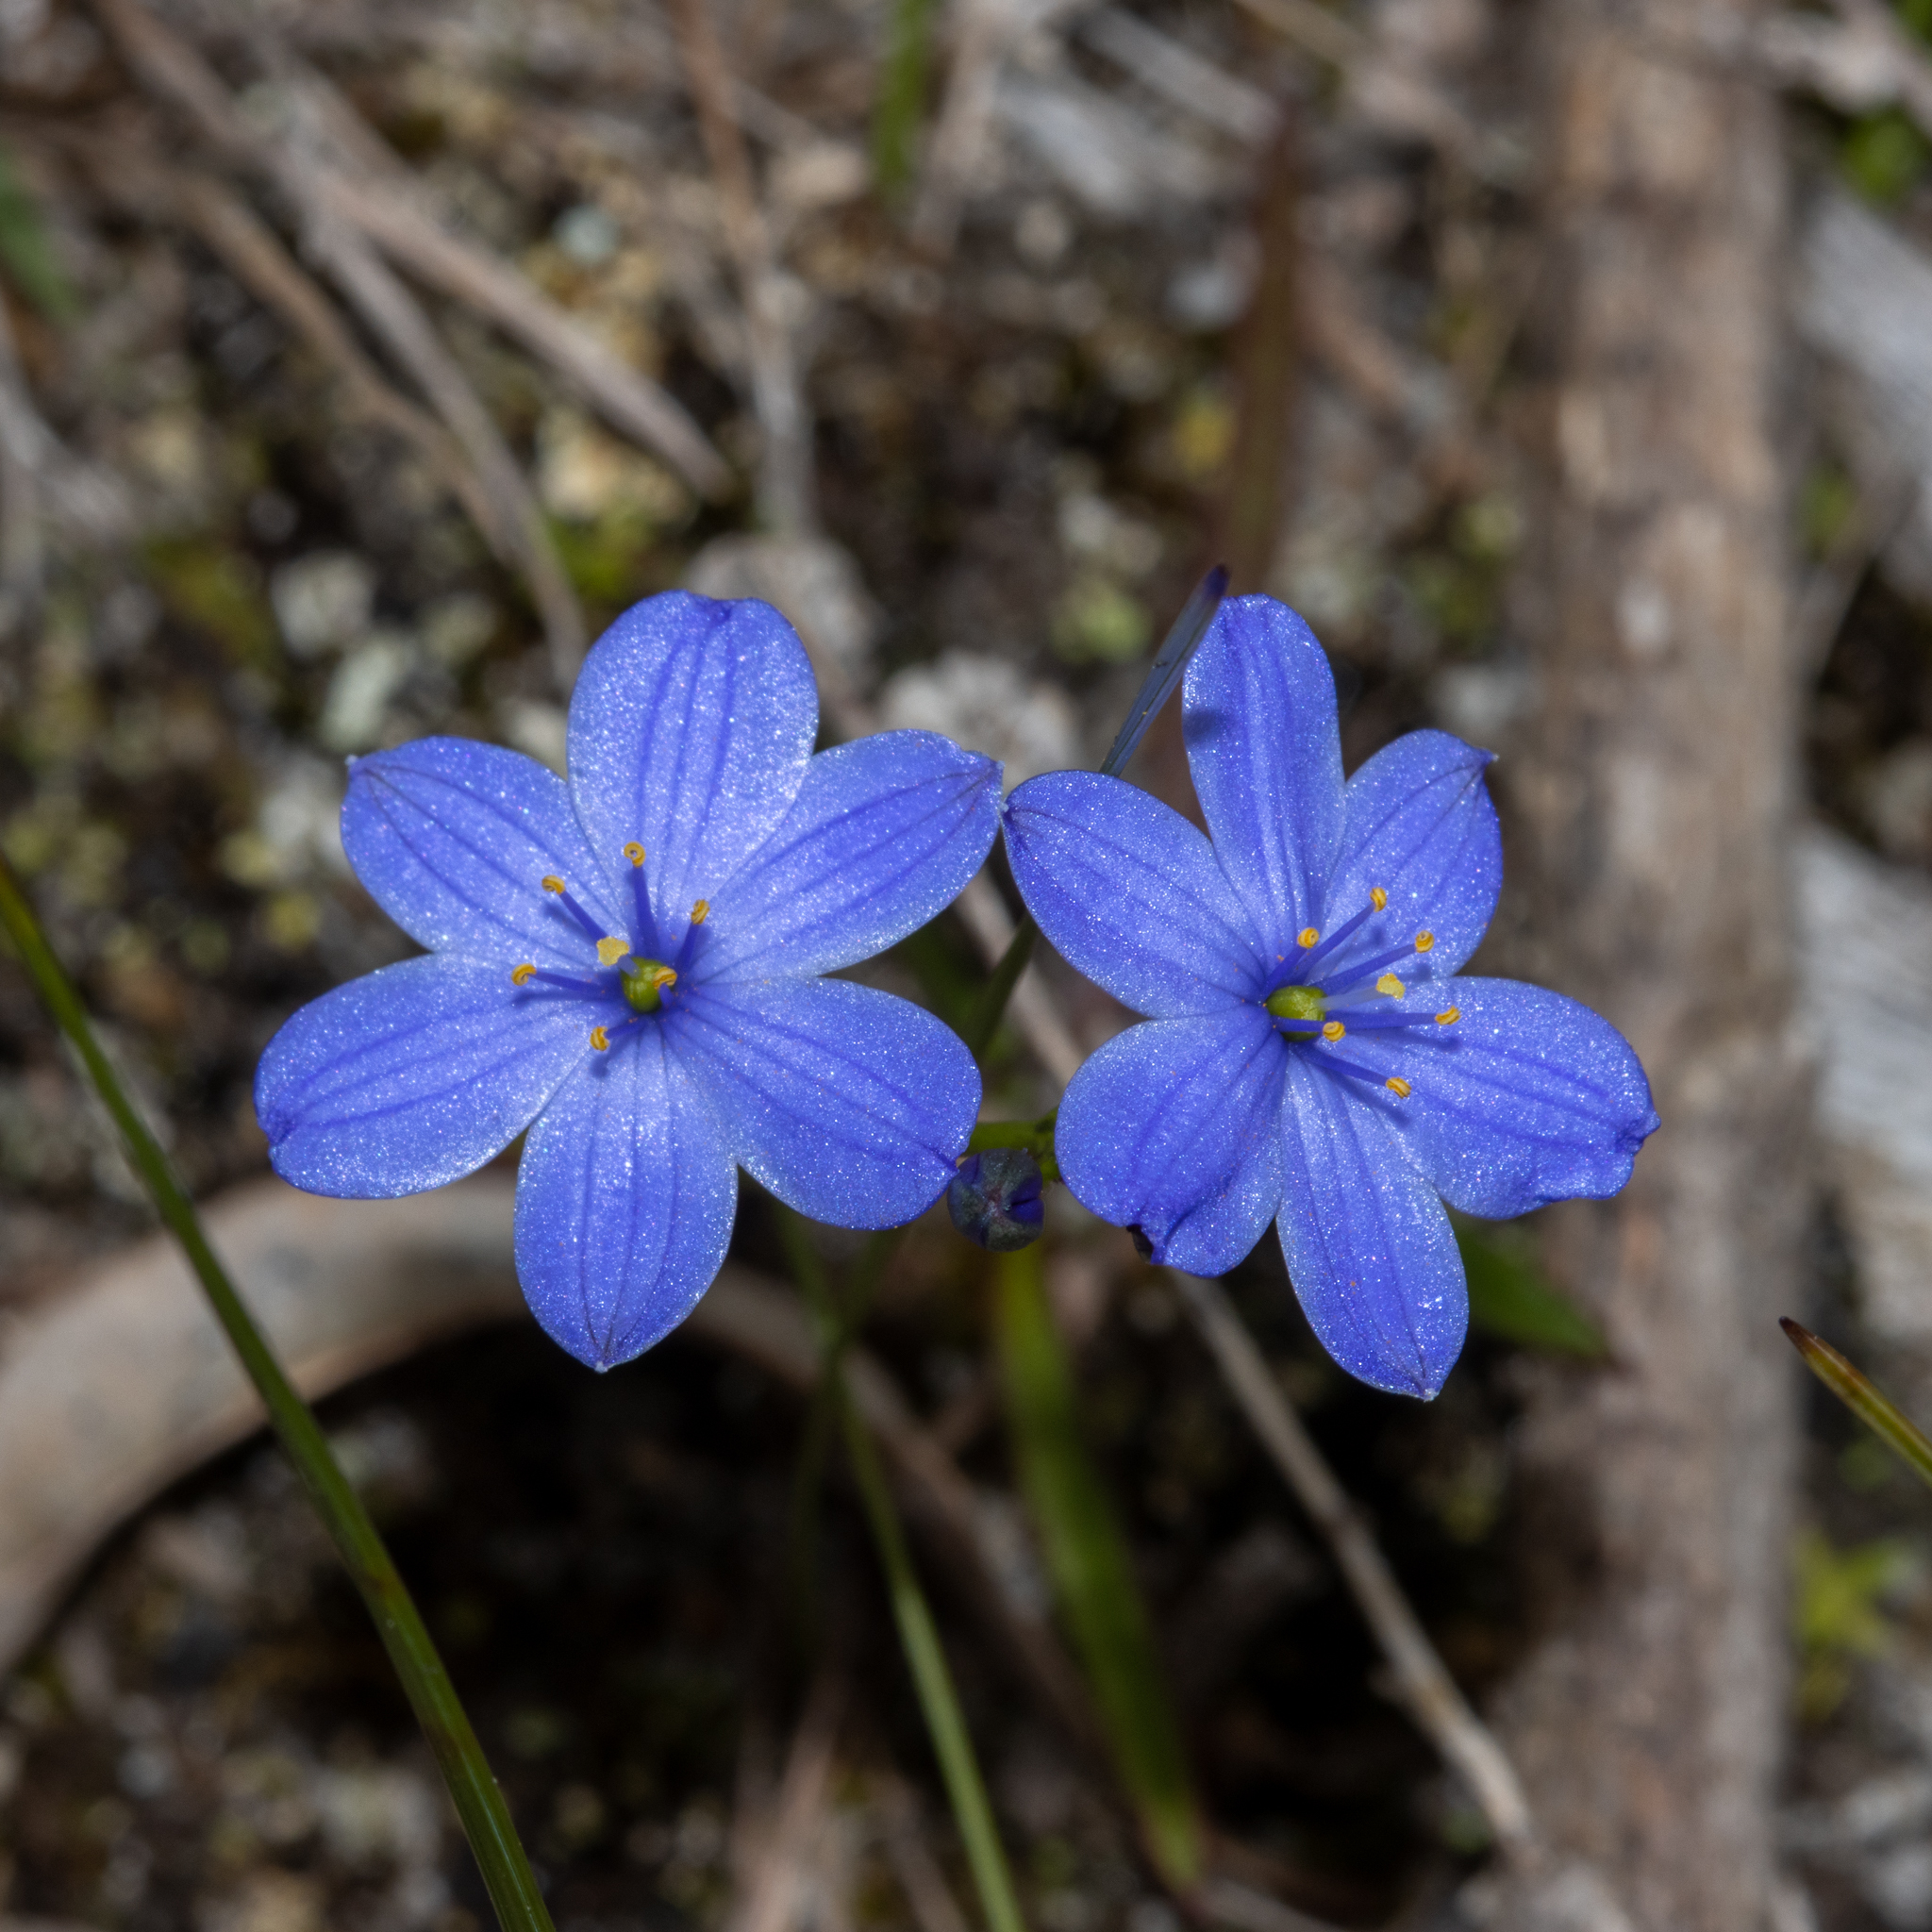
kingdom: Plantae
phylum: Tracheophyta
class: Liliopsida
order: Asparagales
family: Asphodelaceae
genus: Chamaescilla
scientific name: Chamaescilla corymbosa
